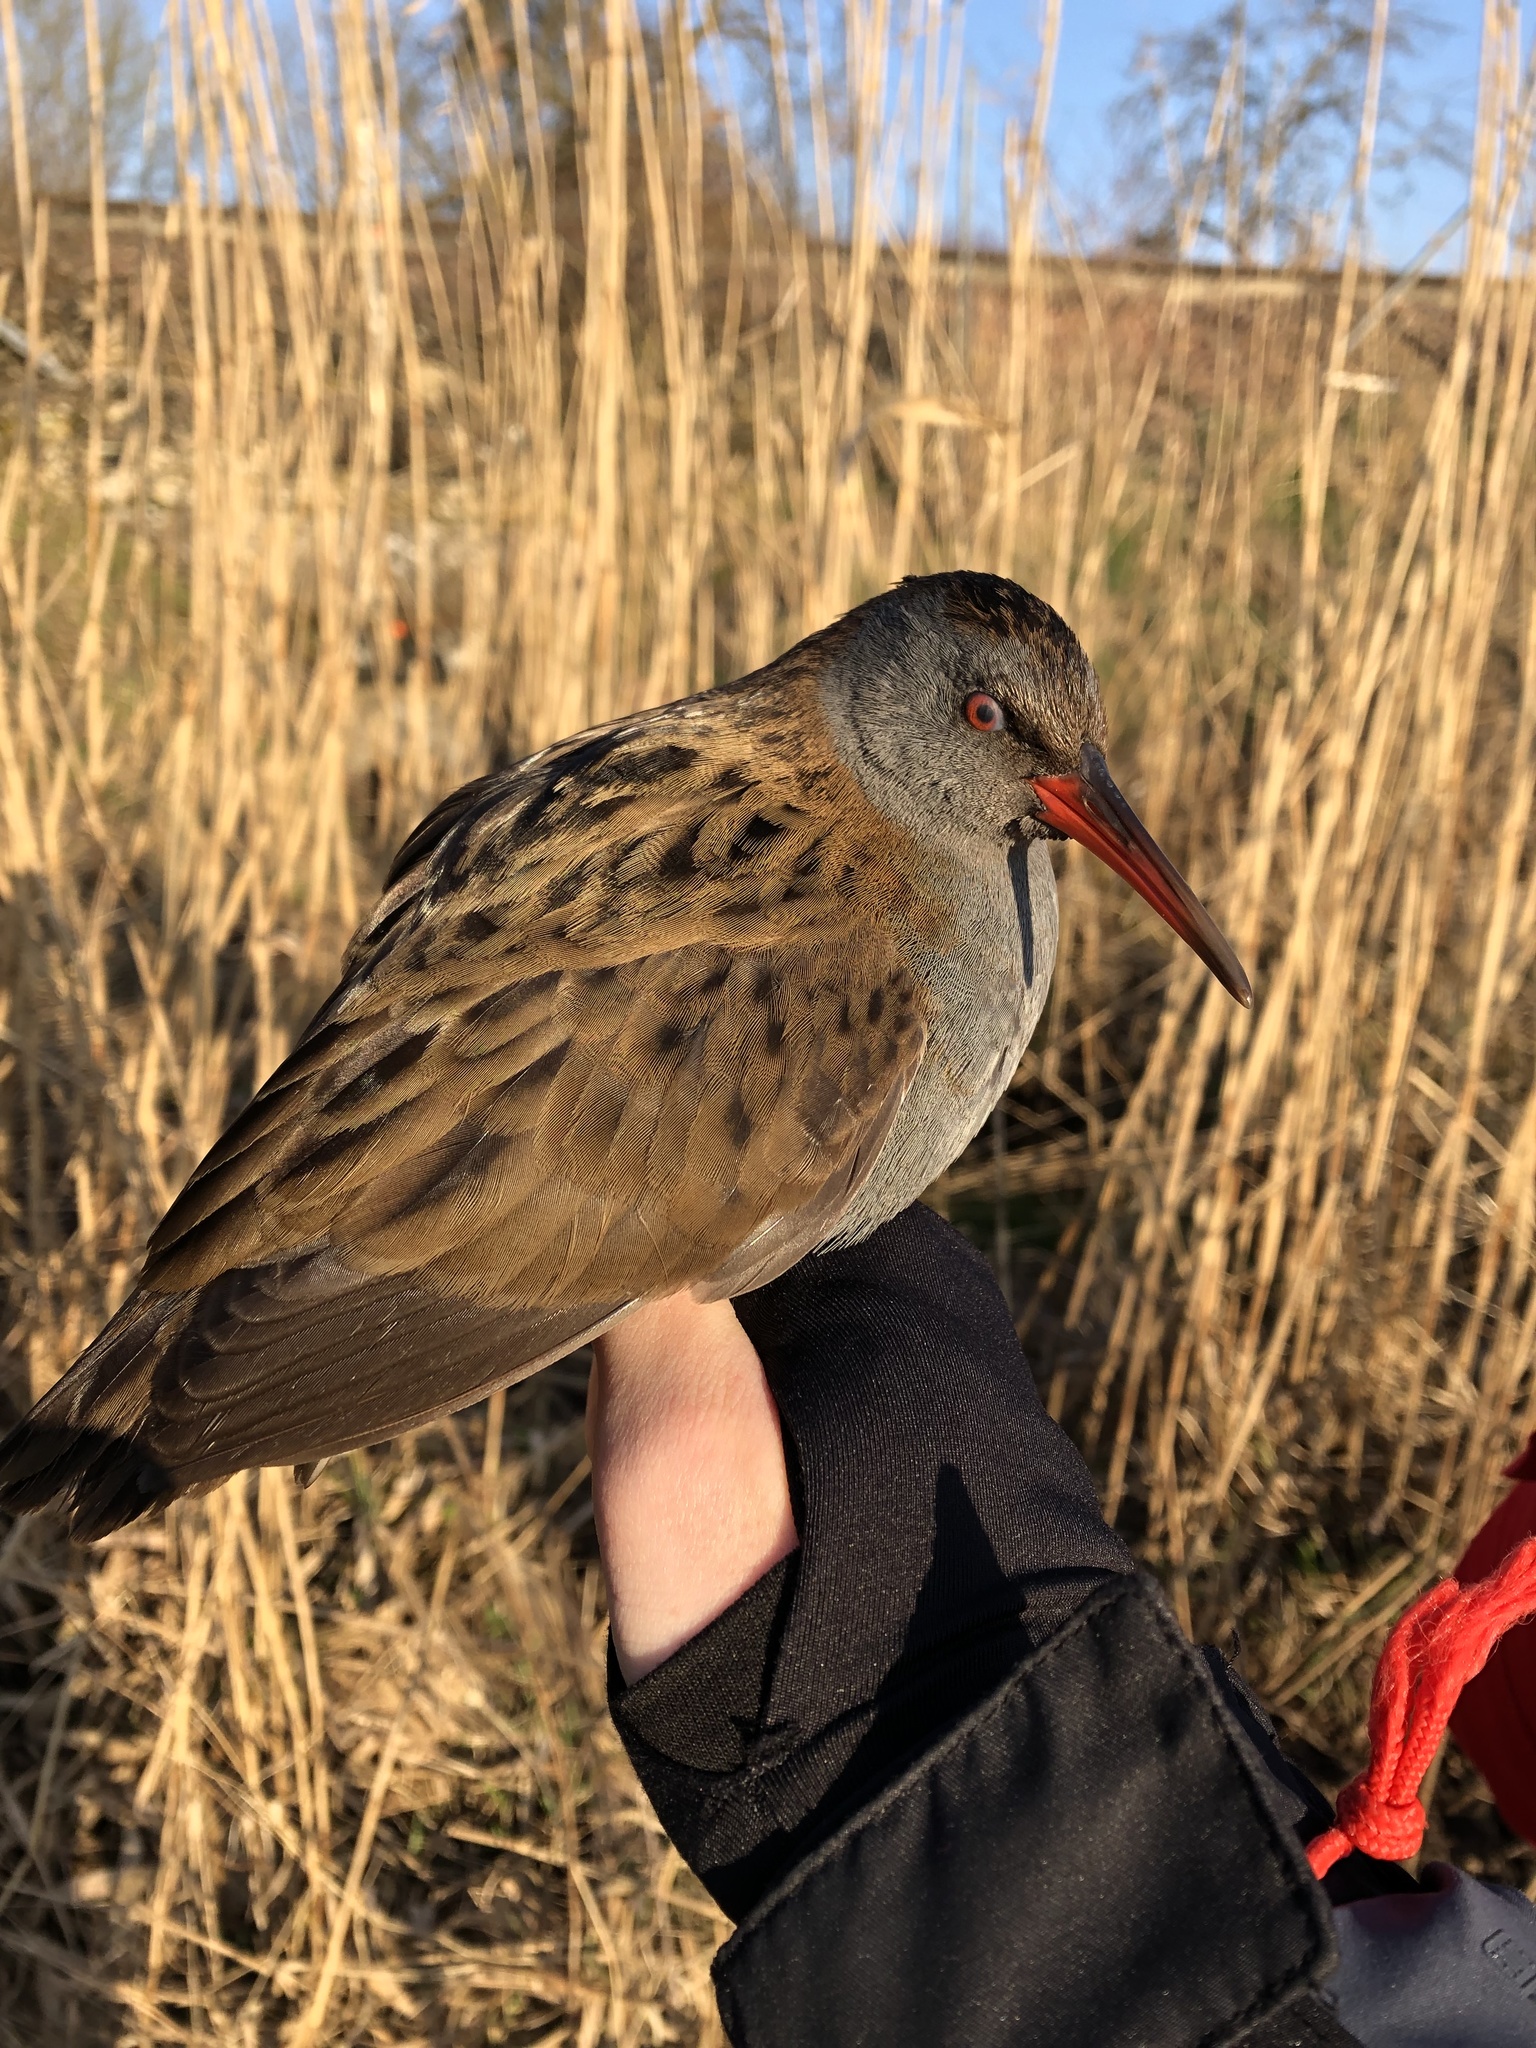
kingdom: Animalia
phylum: Chordata
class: Aves
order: Gruiformes
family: Rallidae
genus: Rallus
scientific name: Rallus aquaticus
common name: Water rail
